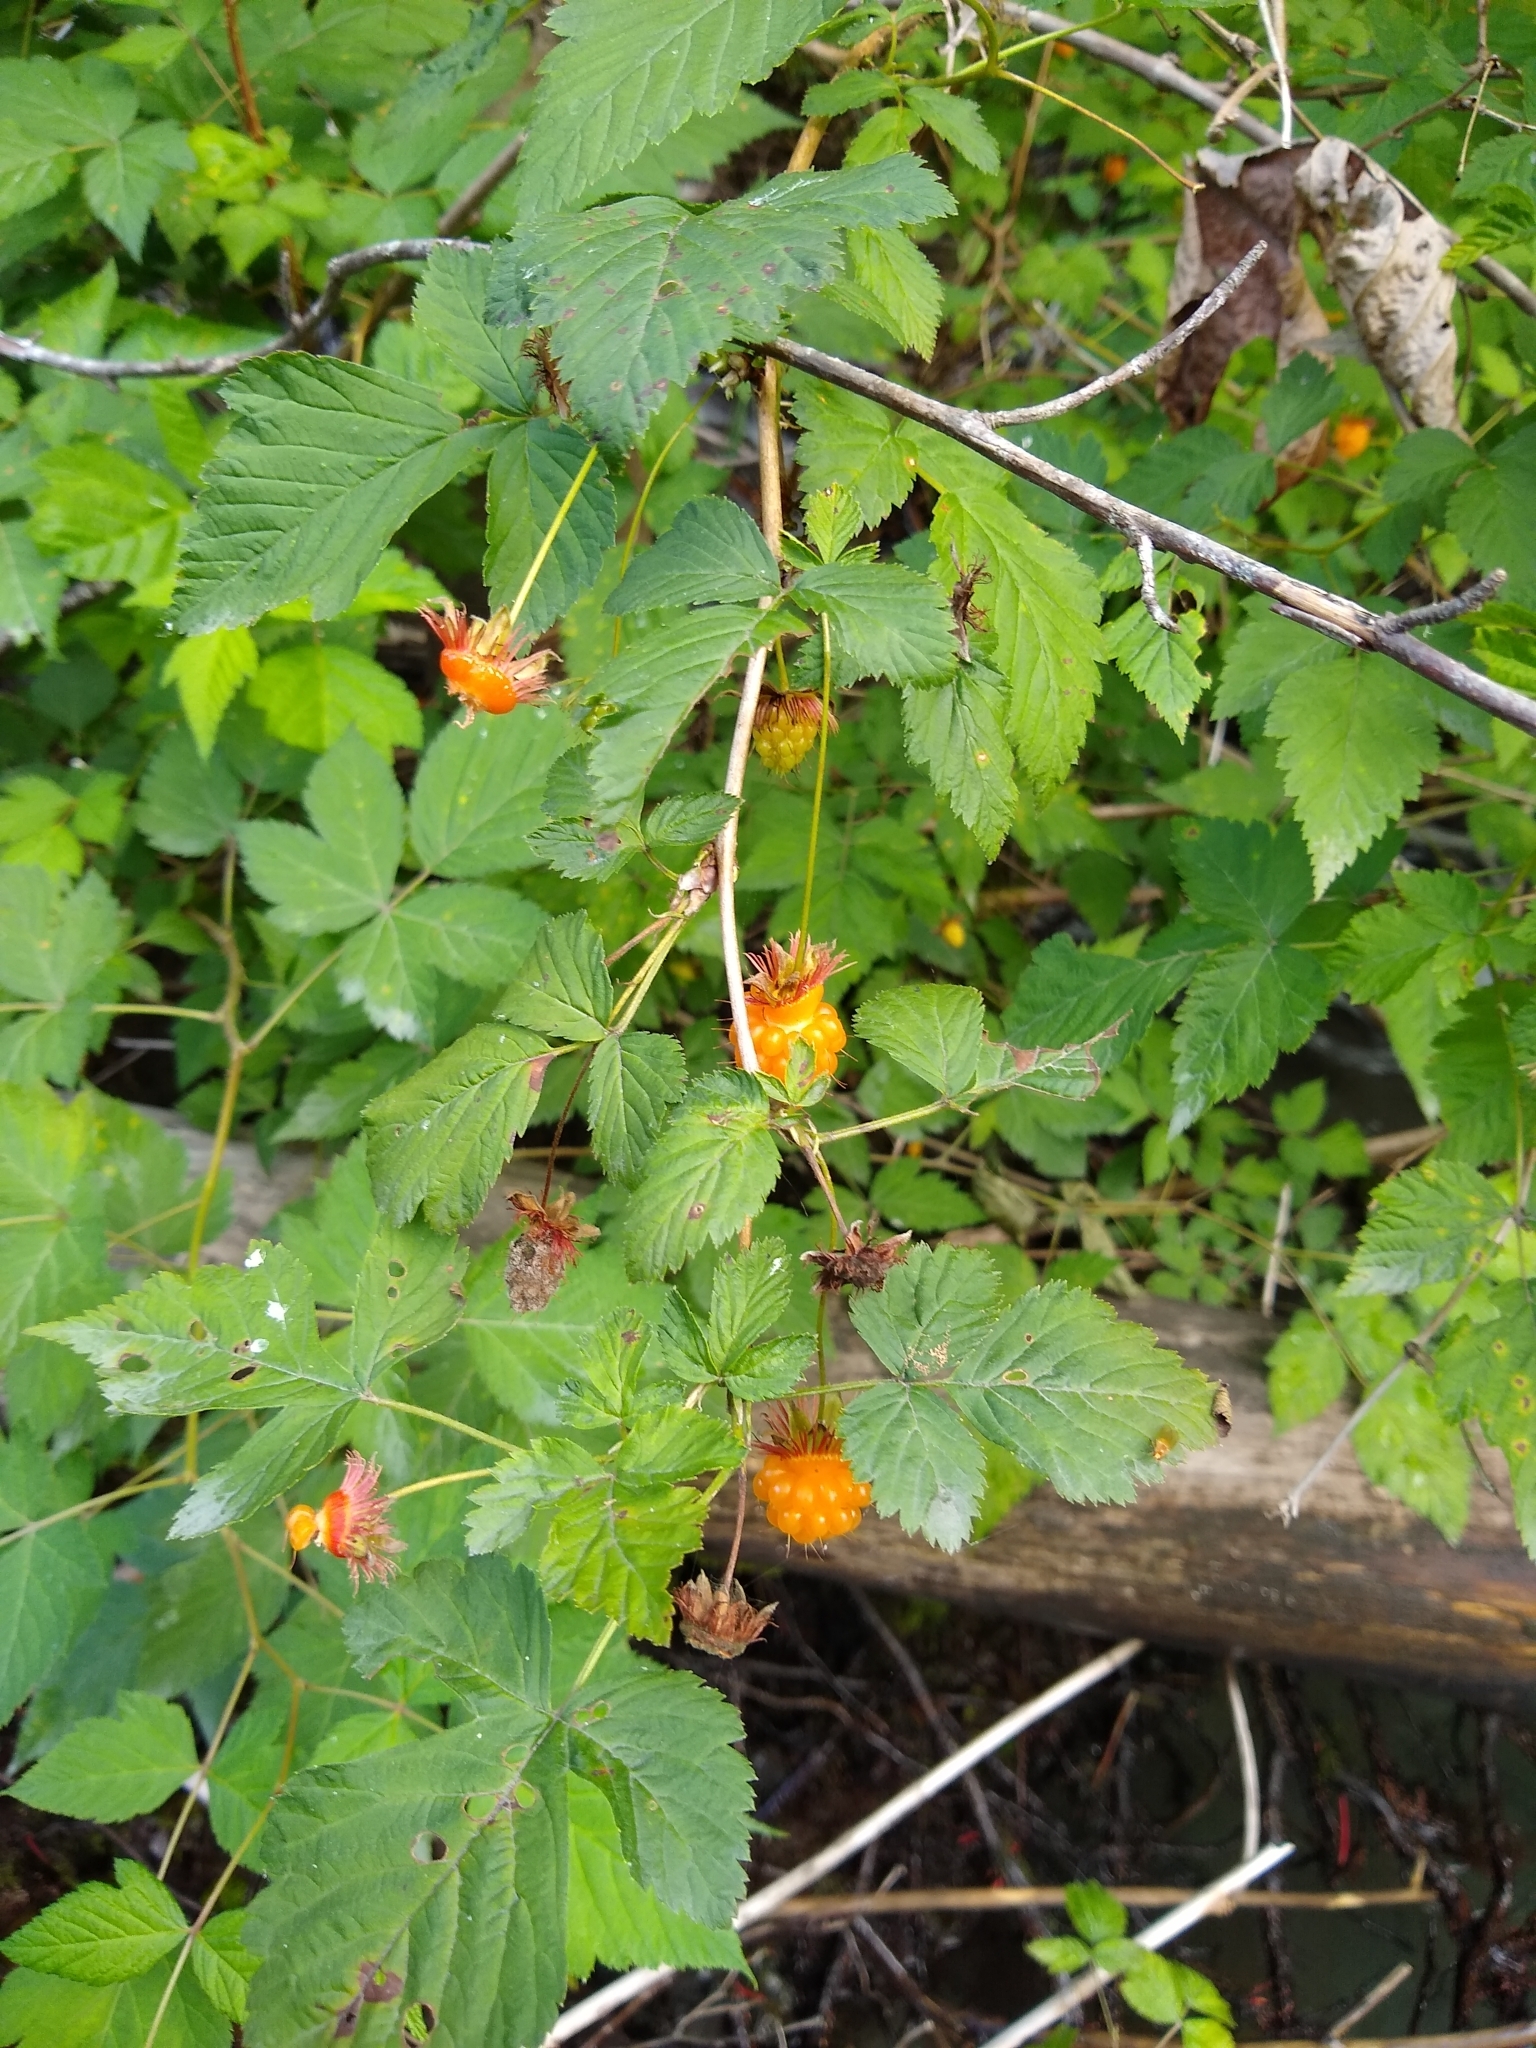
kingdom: Plantae
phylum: Tracheophyta
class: Magnoliopsida
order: Rosales
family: Rosaceae
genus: Rubus
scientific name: Rubus spectabilis
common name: Salmonberry
